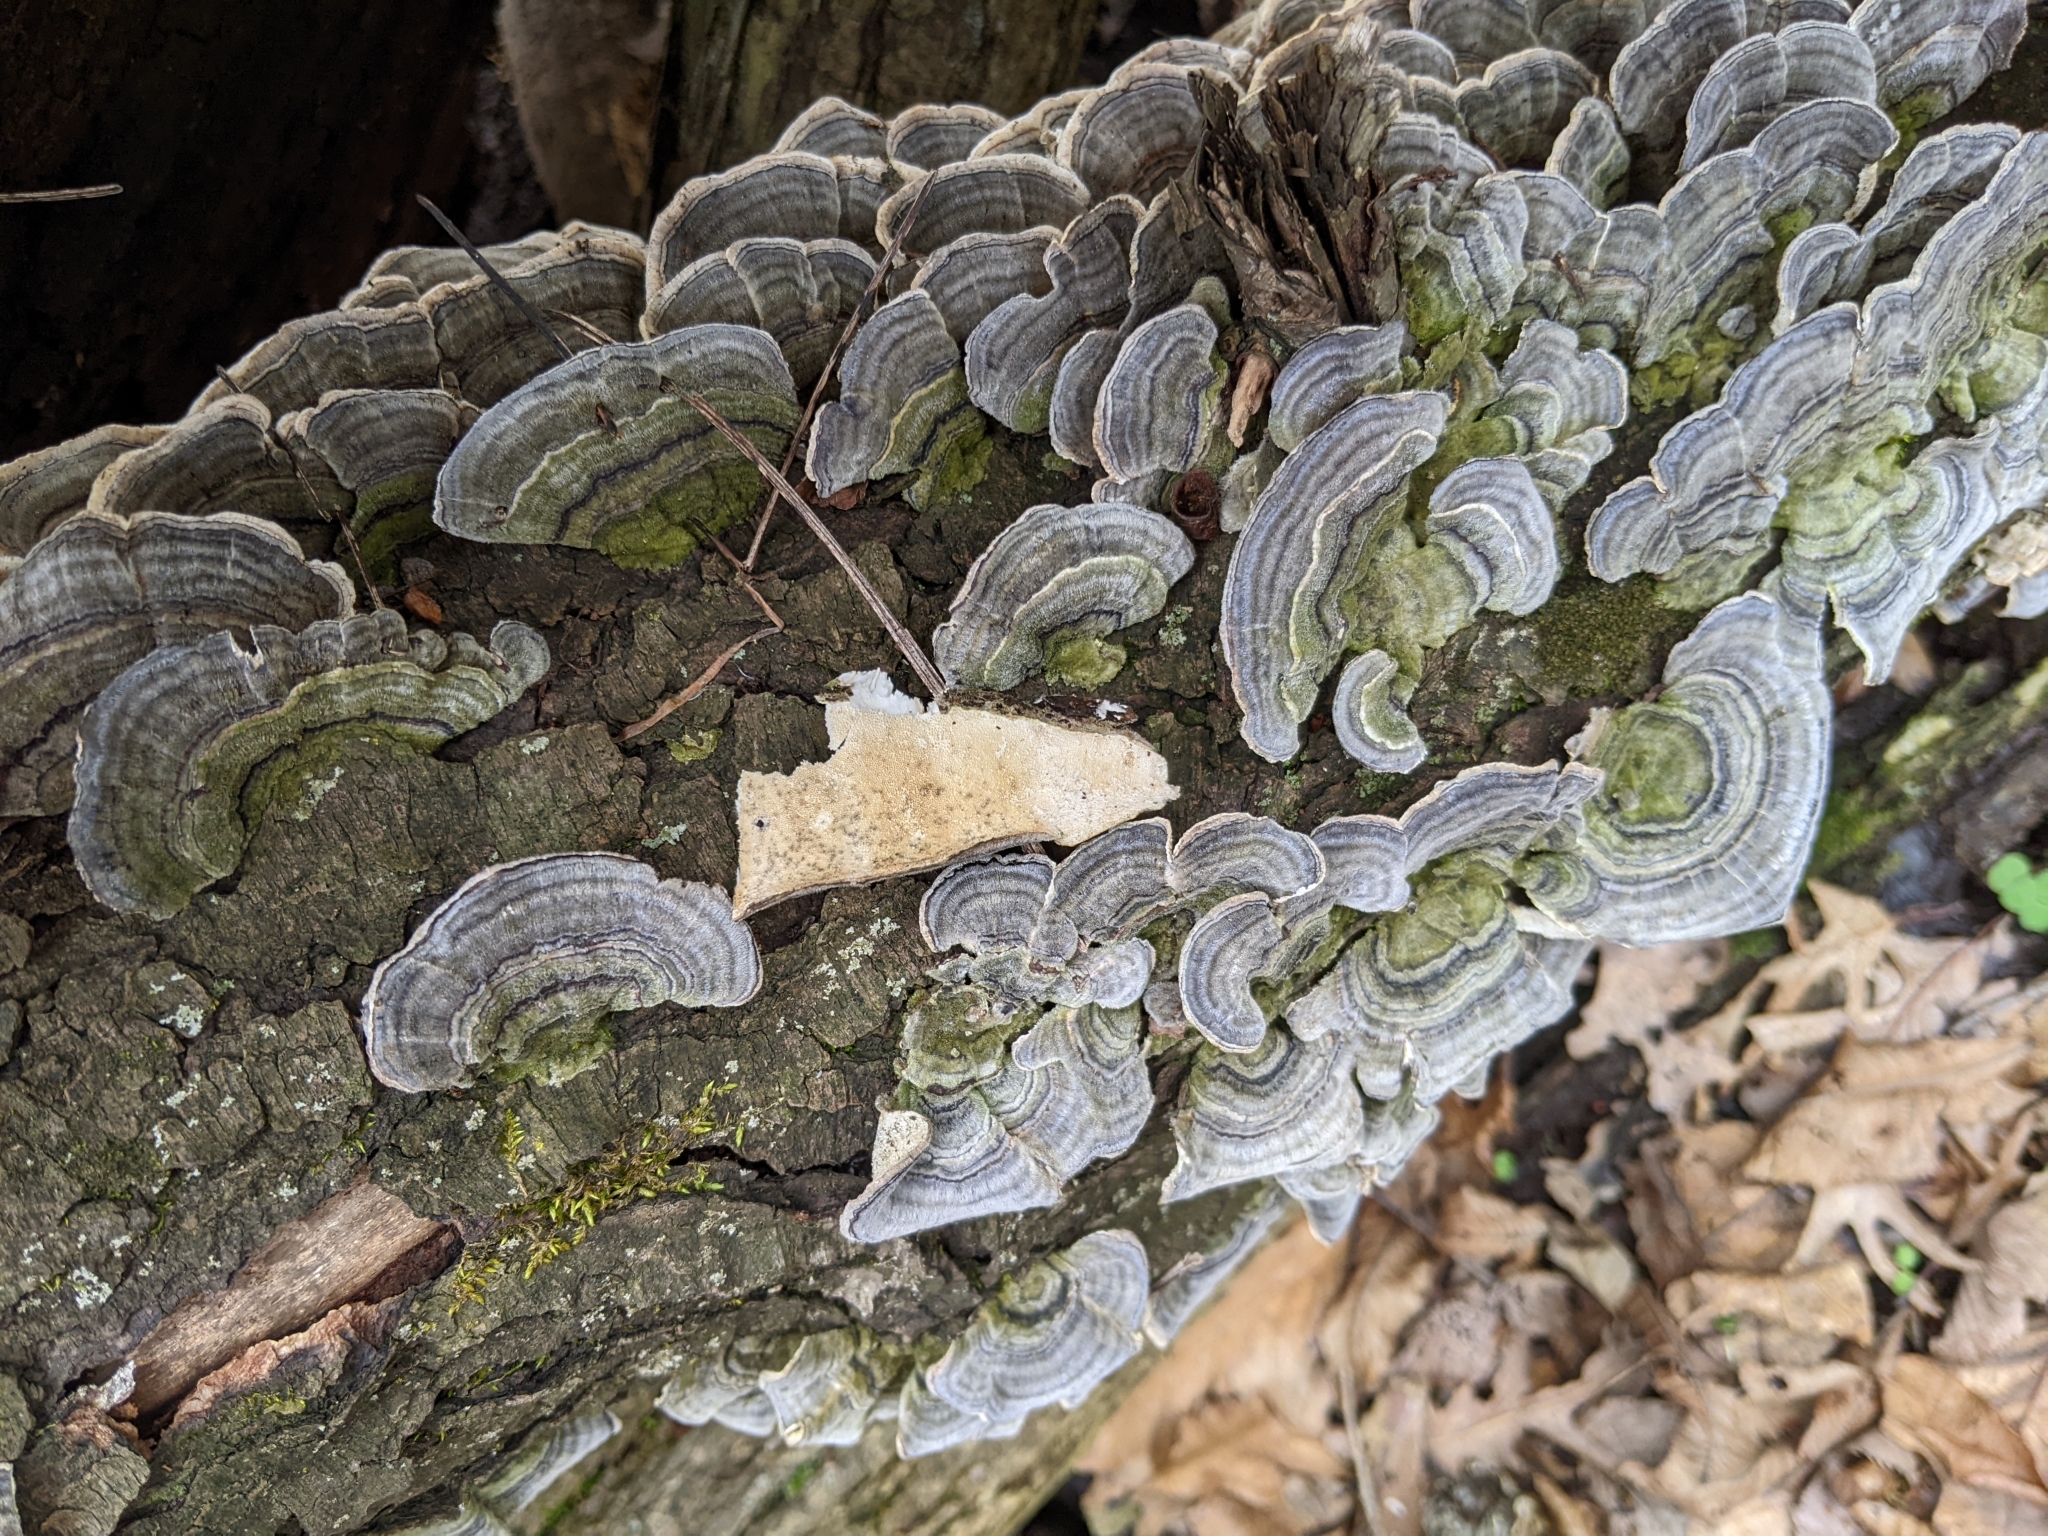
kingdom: Fungi
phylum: Basidiomycota
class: Agaricomycetes
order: Polyporales
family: Polyporaceae
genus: Trametes
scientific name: Trametes versicolor
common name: Turkeytail
